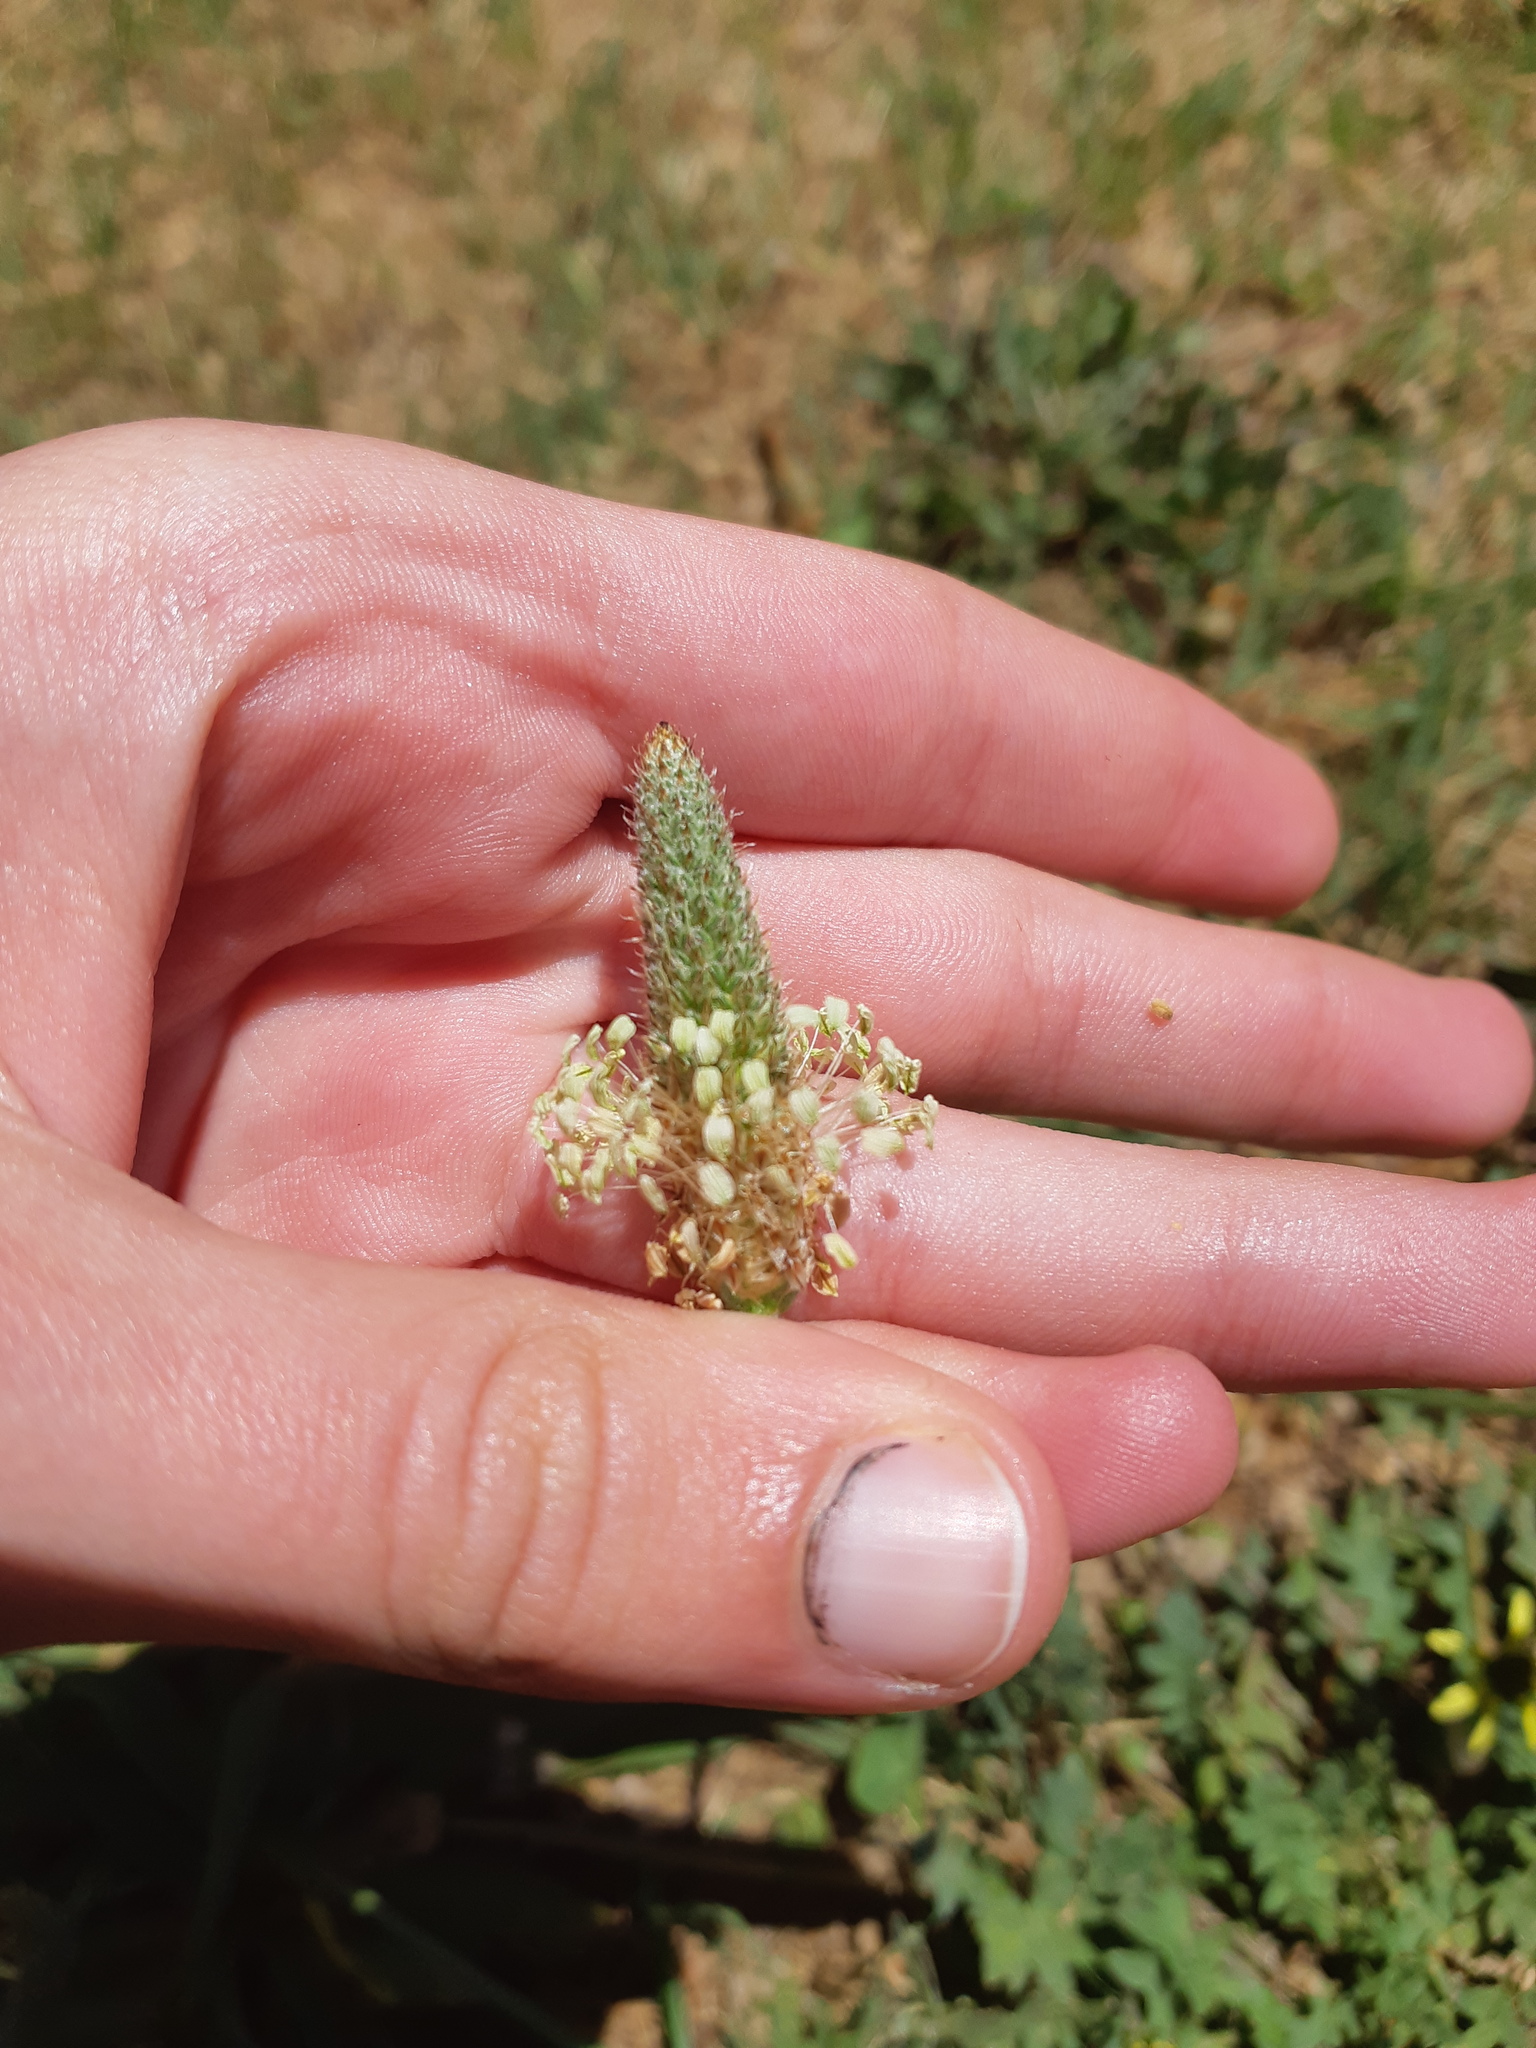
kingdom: Plantae
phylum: Tracheophyta
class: Magnoliopsida
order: Lamiales
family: Plantaginaceae
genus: Plantago
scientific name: Plantago lanceolata
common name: Ribwort plantain
